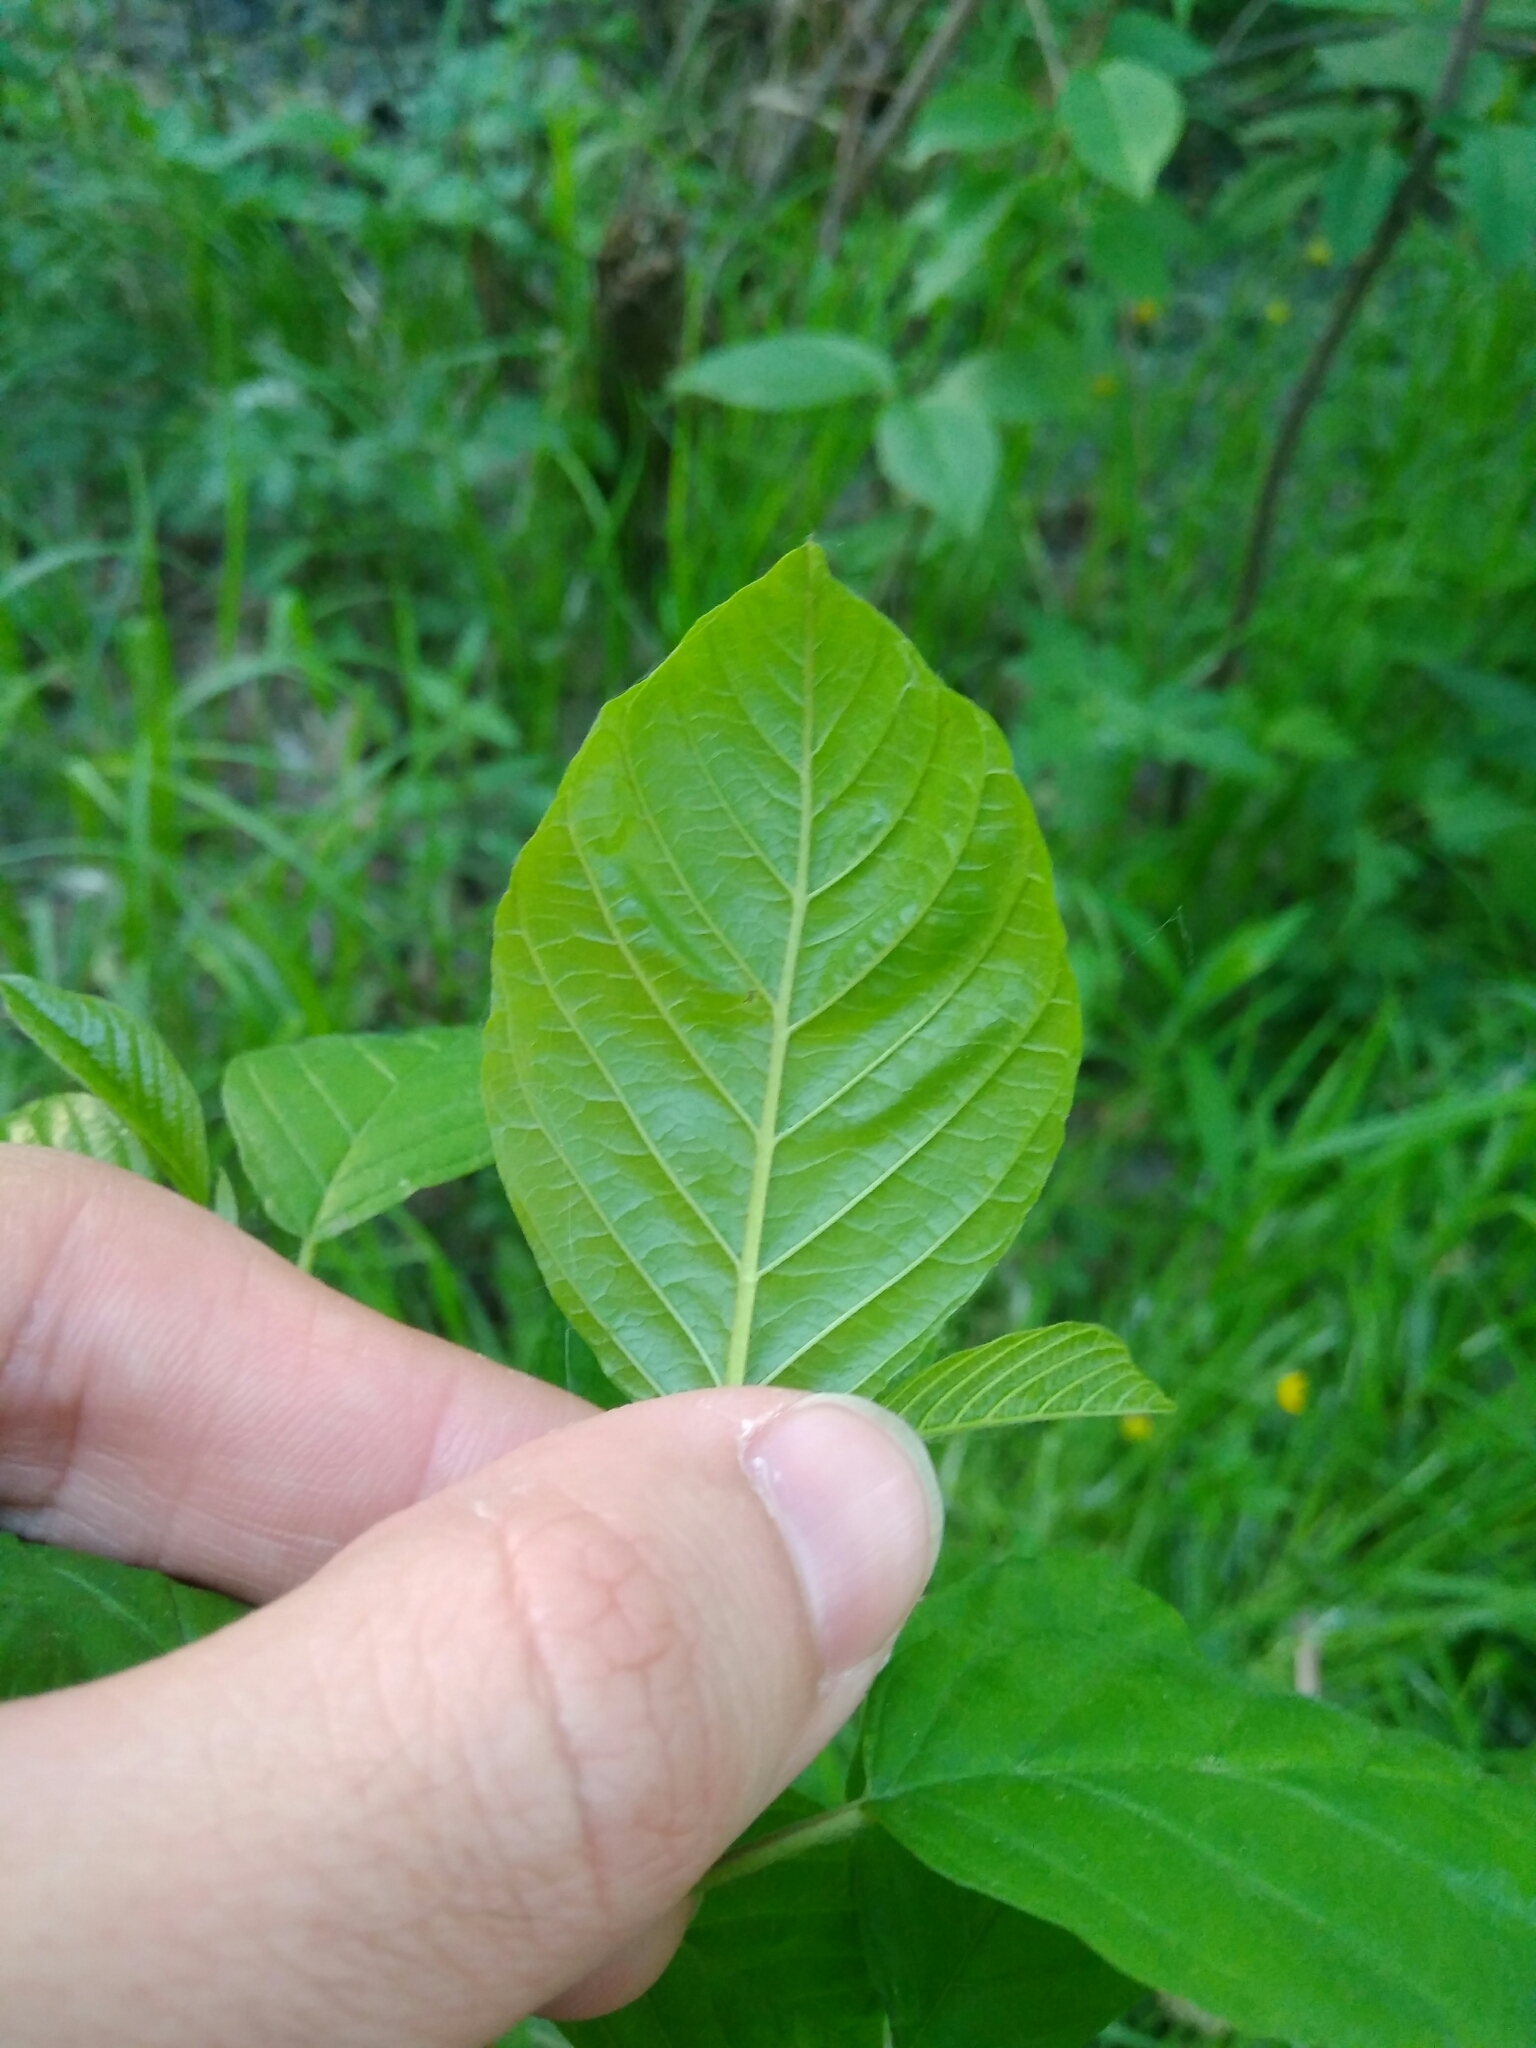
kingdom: Plantae
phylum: Tracheophyta
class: Magnoliopsida
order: Rosales
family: Rhamnaceae
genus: Frangula
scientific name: Frangula alnus
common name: Alder buckthorn
